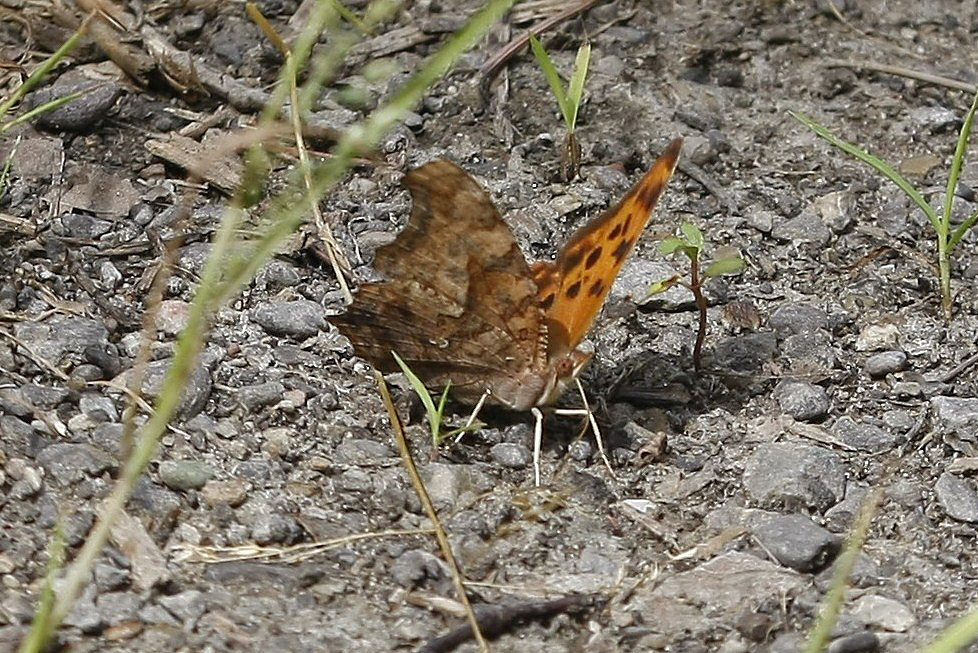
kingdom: Animalia
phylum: Arthropoda
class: Insecta
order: Lepidoptera
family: Nymphalidae
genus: Polygonia
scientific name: Polygonia interrogationis
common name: Question mark
